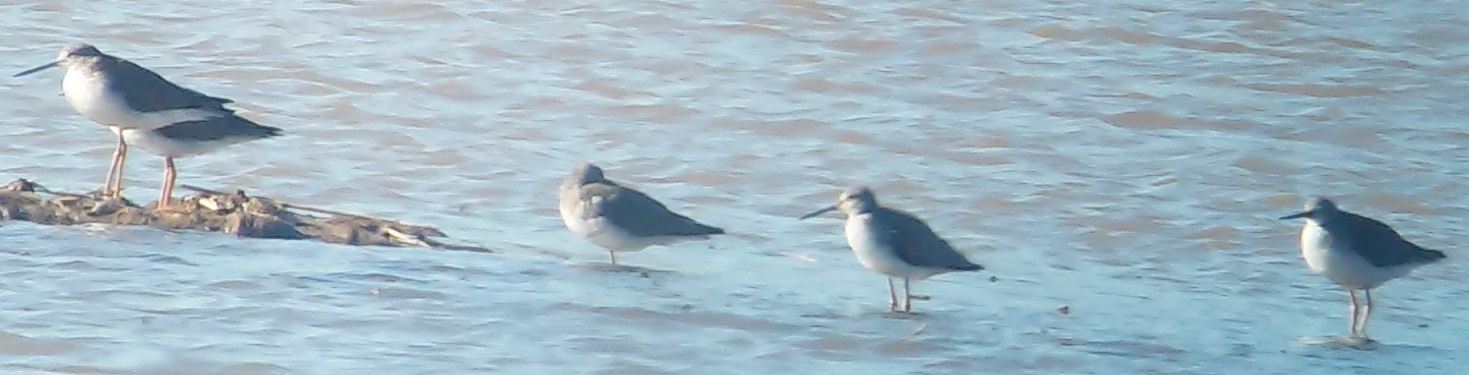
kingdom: Animalia
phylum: Chordata
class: Aves
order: Charadriiformes
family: Scolopacidae
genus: Tringa
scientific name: Tringa melanoleuca
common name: Greater yellowlegs
